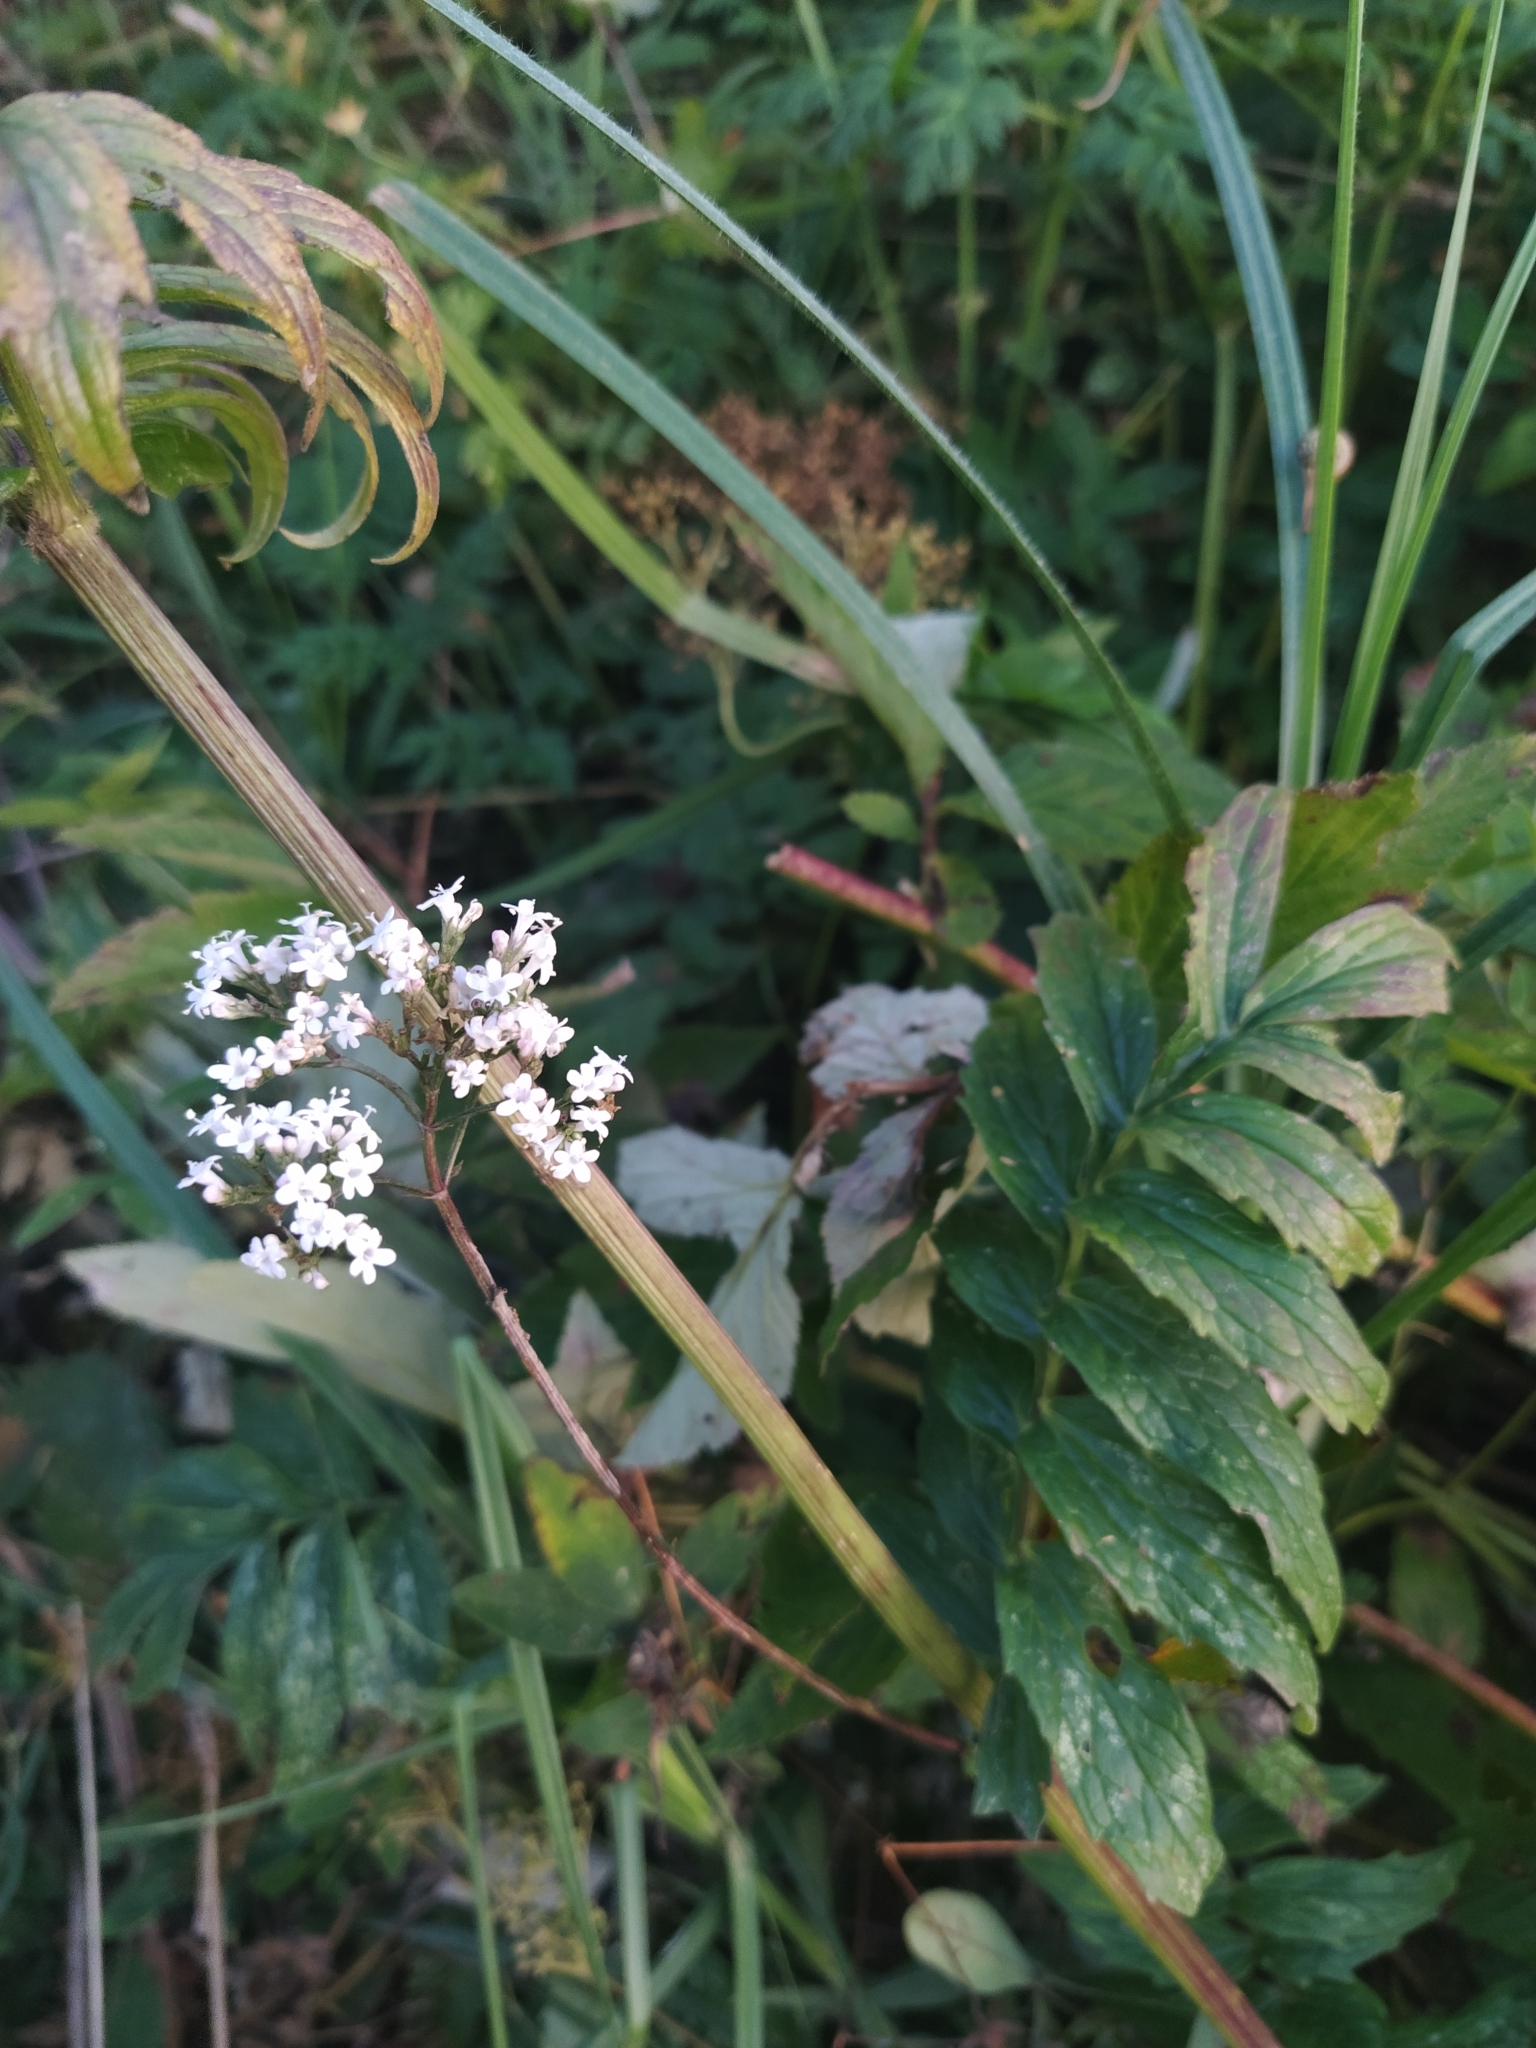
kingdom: Plantae
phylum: Tracheophyta
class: Magnoliopsida
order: Dipsacales
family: Caprifoliaceae
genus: Valeriana
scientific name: Valeriana officinalis
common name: Common valerian
